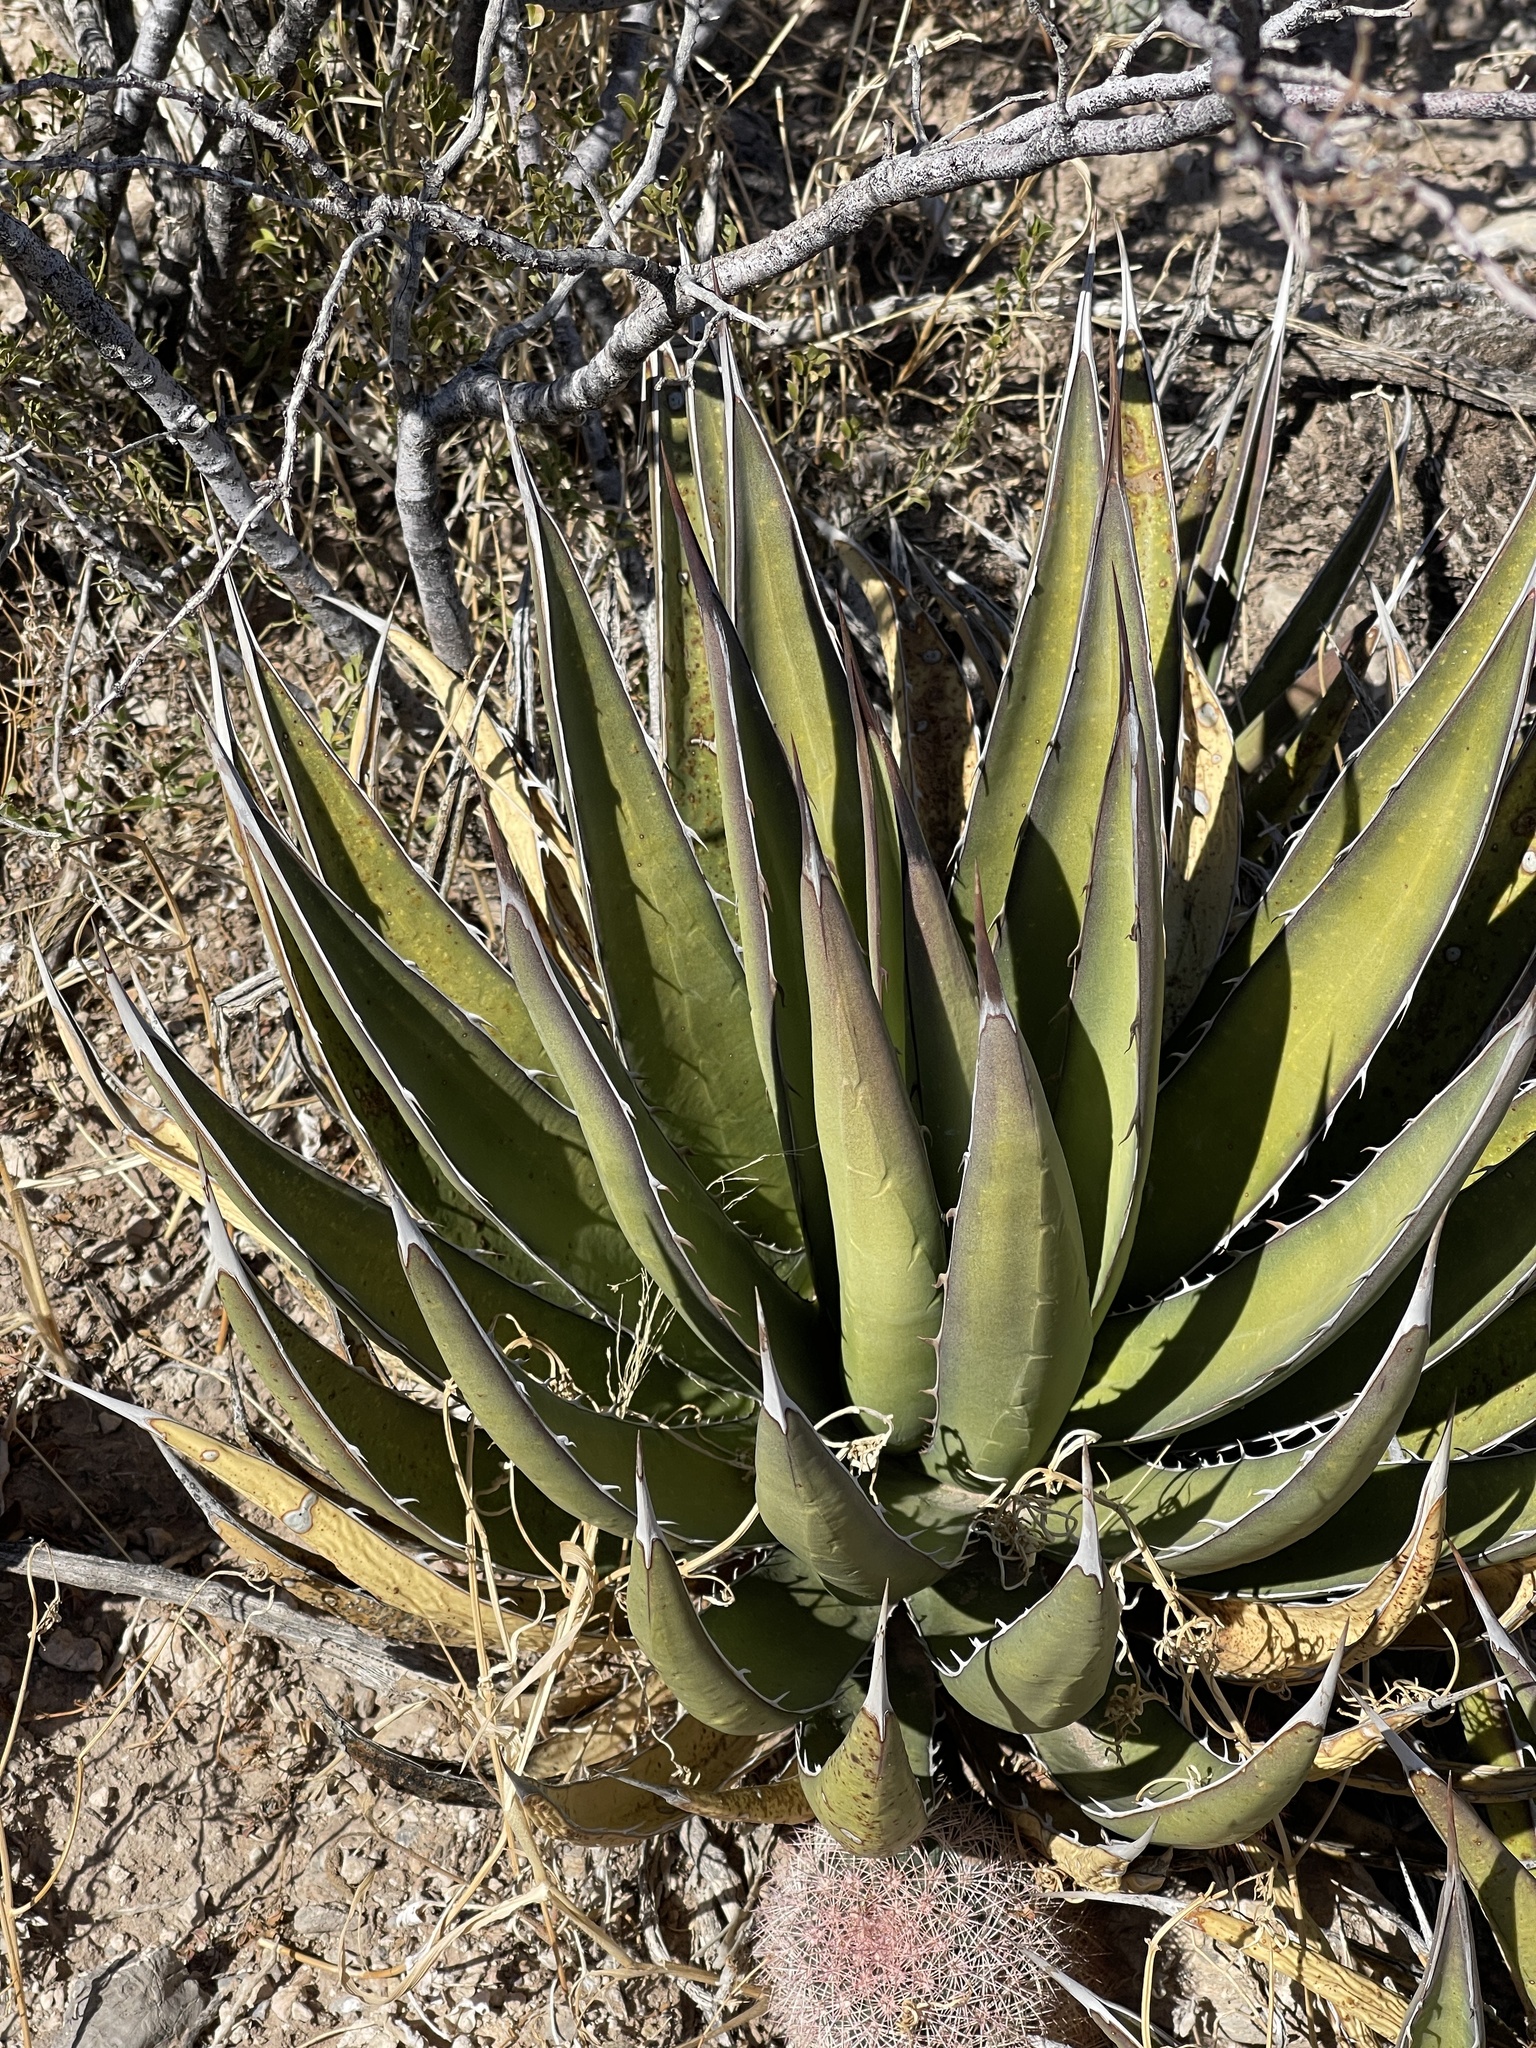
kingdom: Plantae
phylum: Tracheophyta
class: Liliopsida
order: Asparagales
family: Asparagaceae
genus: Agave
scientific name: Agave lechuguilla
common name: Lecheguilla agave
